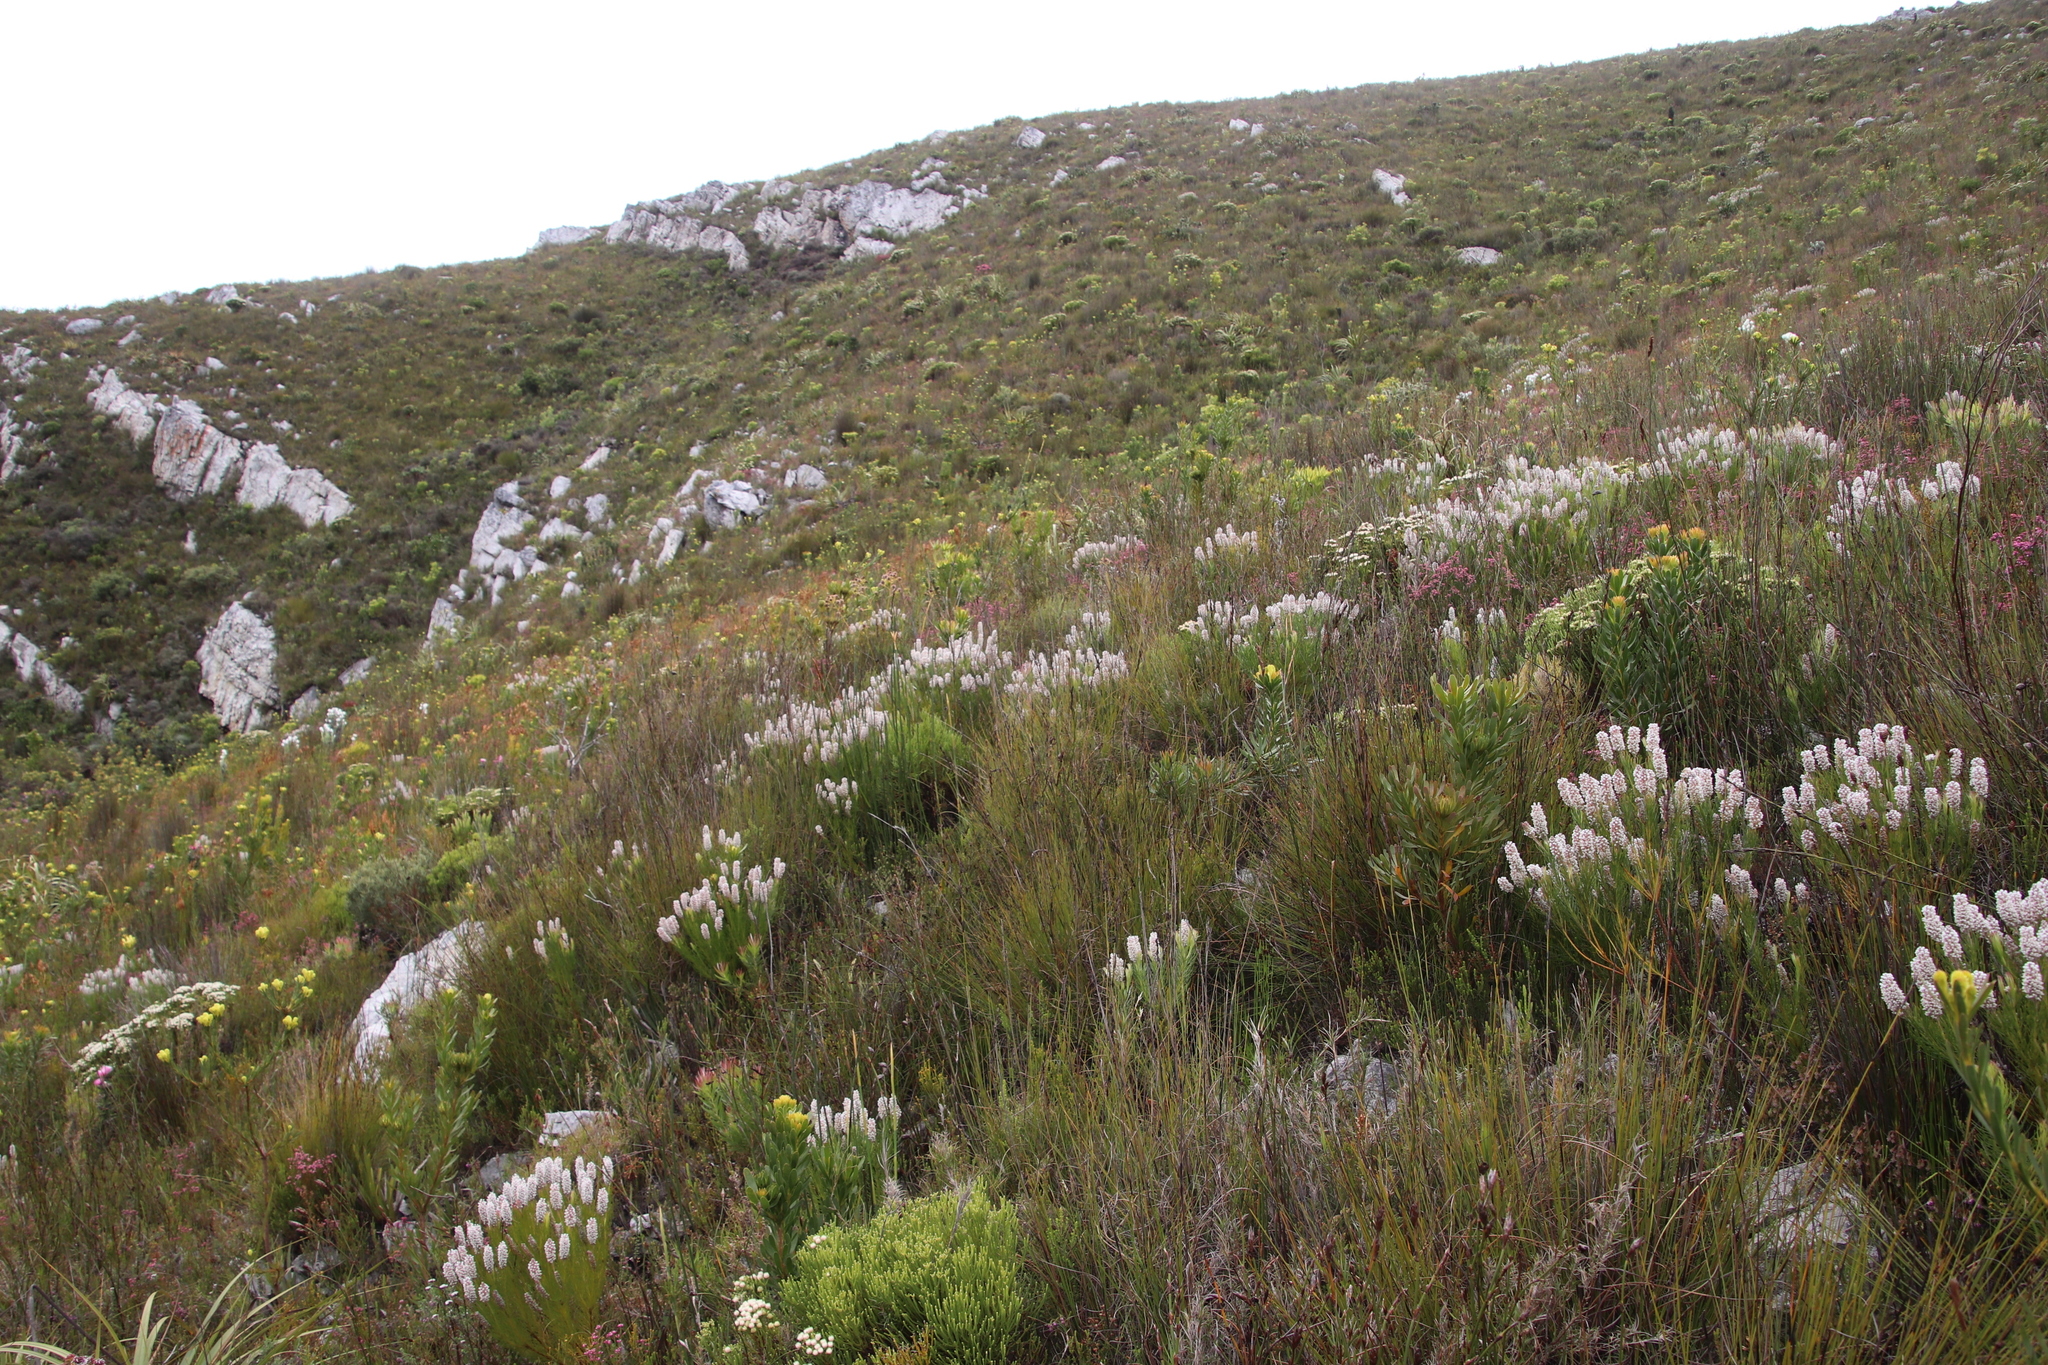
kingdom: Plantae
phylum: Tracheophyta
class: Magnoliopsida
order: Proteales
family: Proteaceae
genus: Spatalla
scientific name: Spatalla curvifolia
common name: White-stalked spoon
